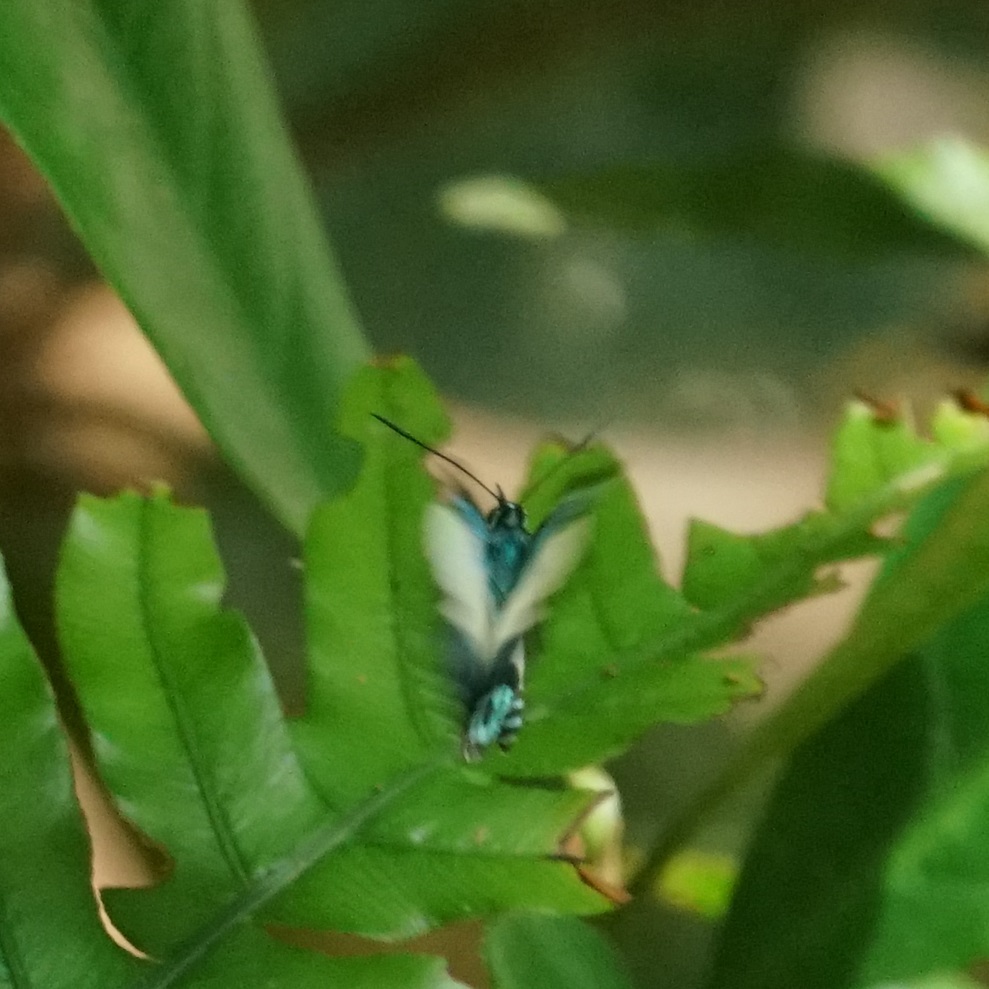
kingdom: Animalia
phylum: Arthropoda
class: Insecta
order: Lepidoptera
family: Lycaenidae
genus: Danis
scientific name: Danis danis
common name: Large green-banded blue
